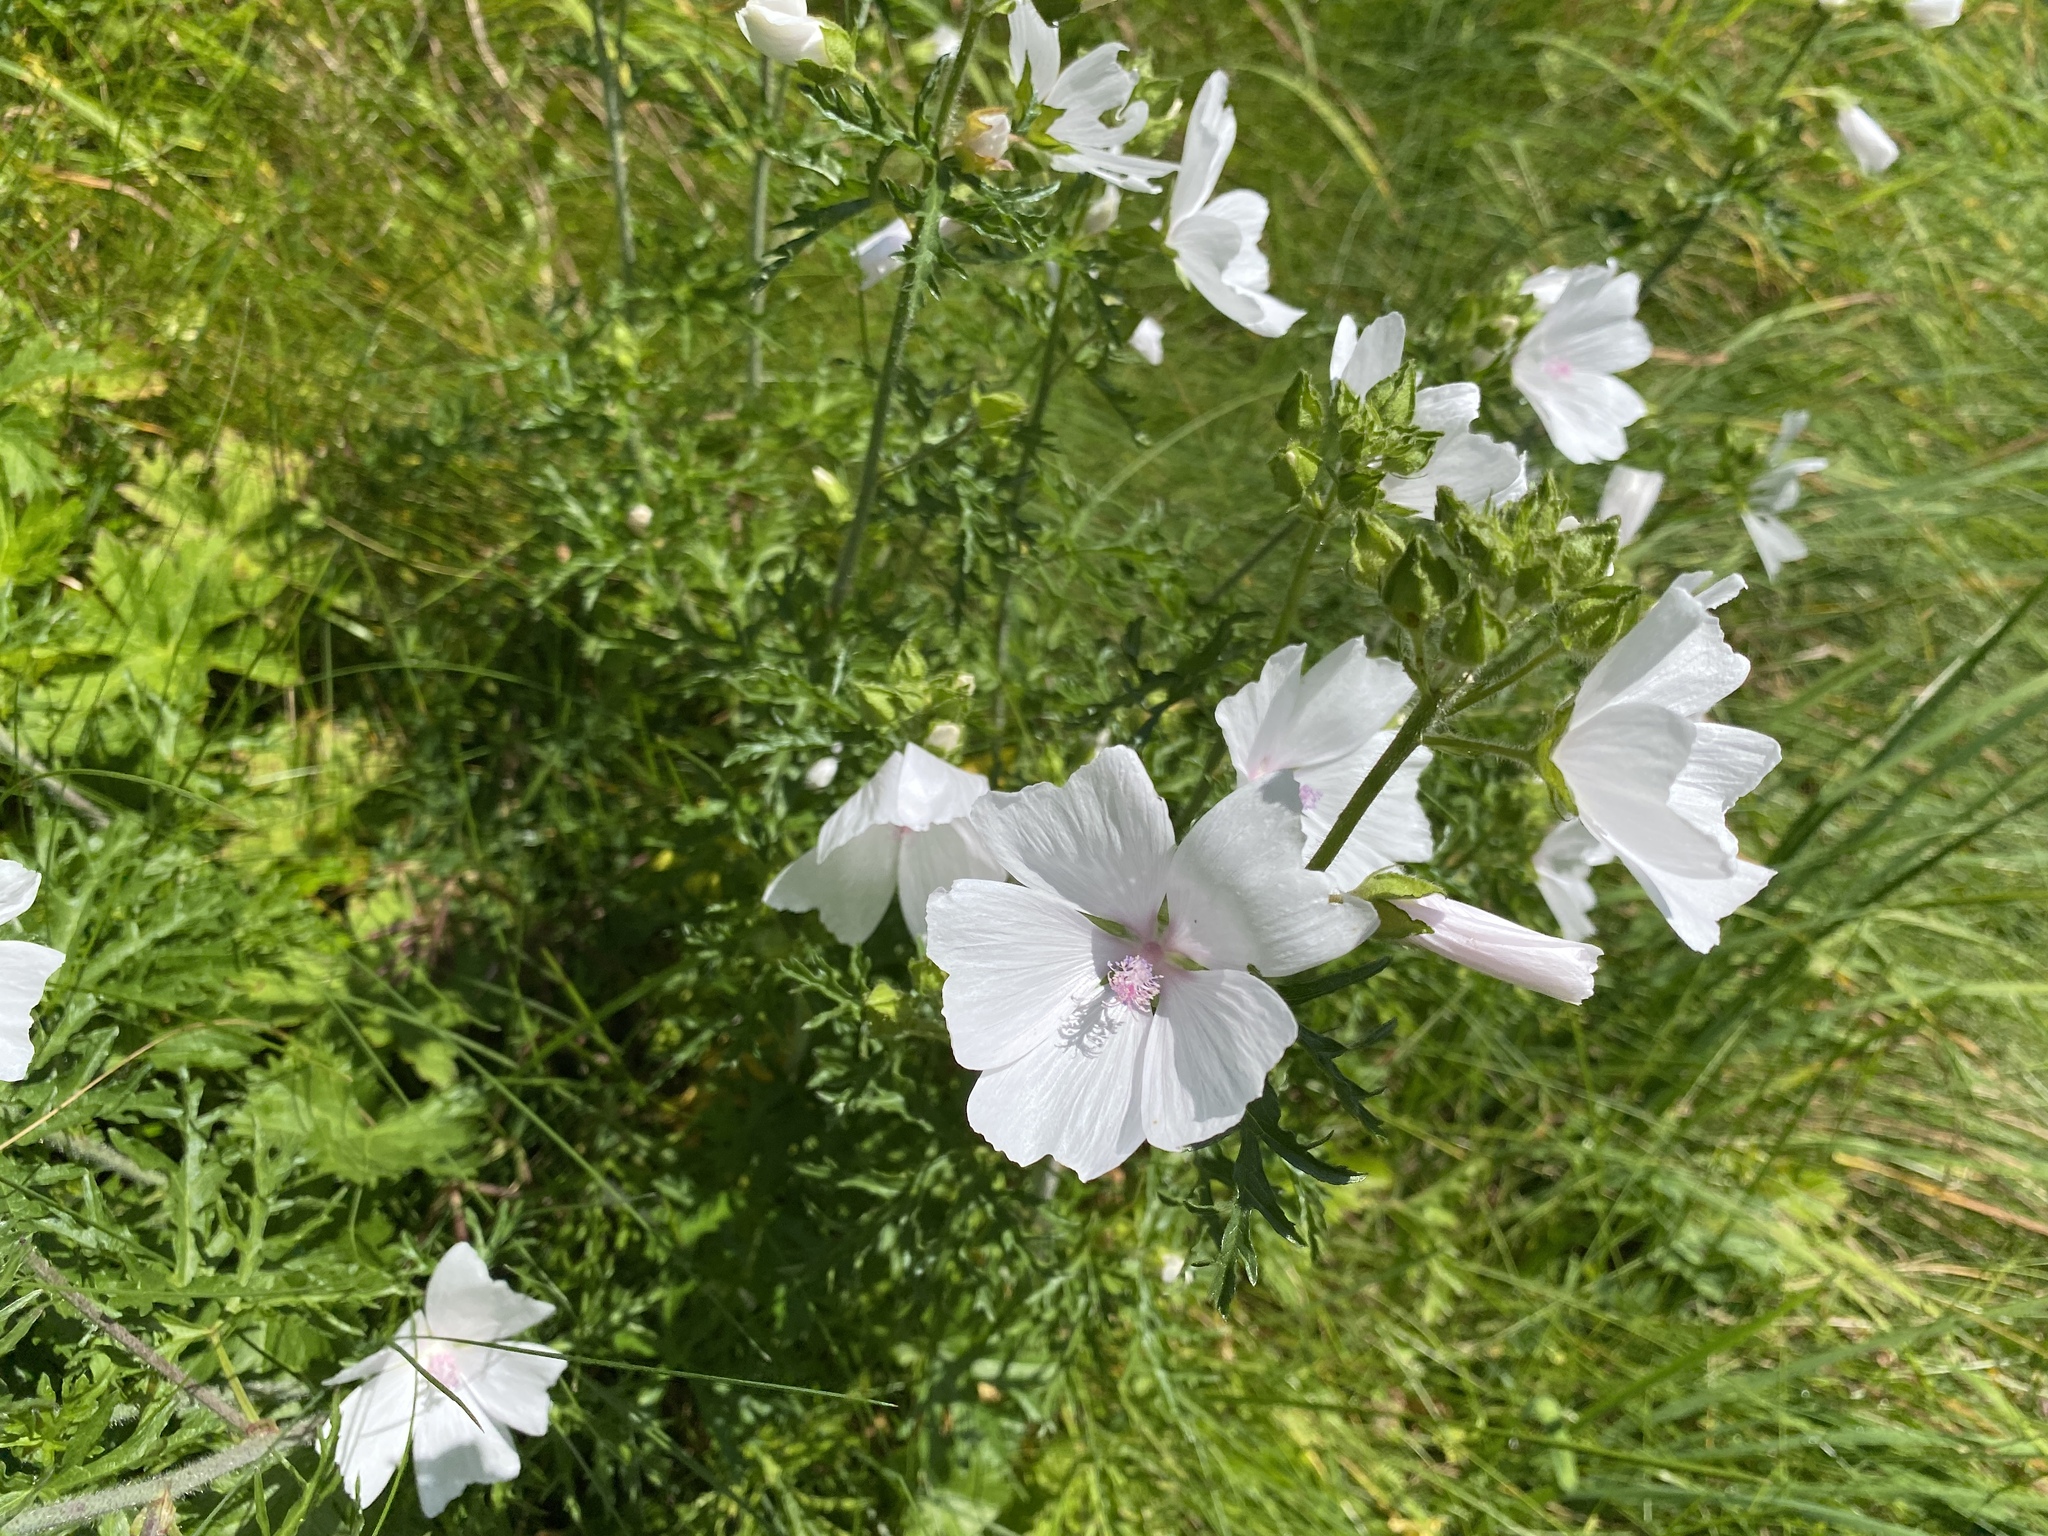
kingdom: Plantae
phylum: Tracheophyta
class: Magnoliopsida
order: Malvales
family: Malvaceae
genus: Malva
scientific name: Malva moschata
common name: Musk mallow
